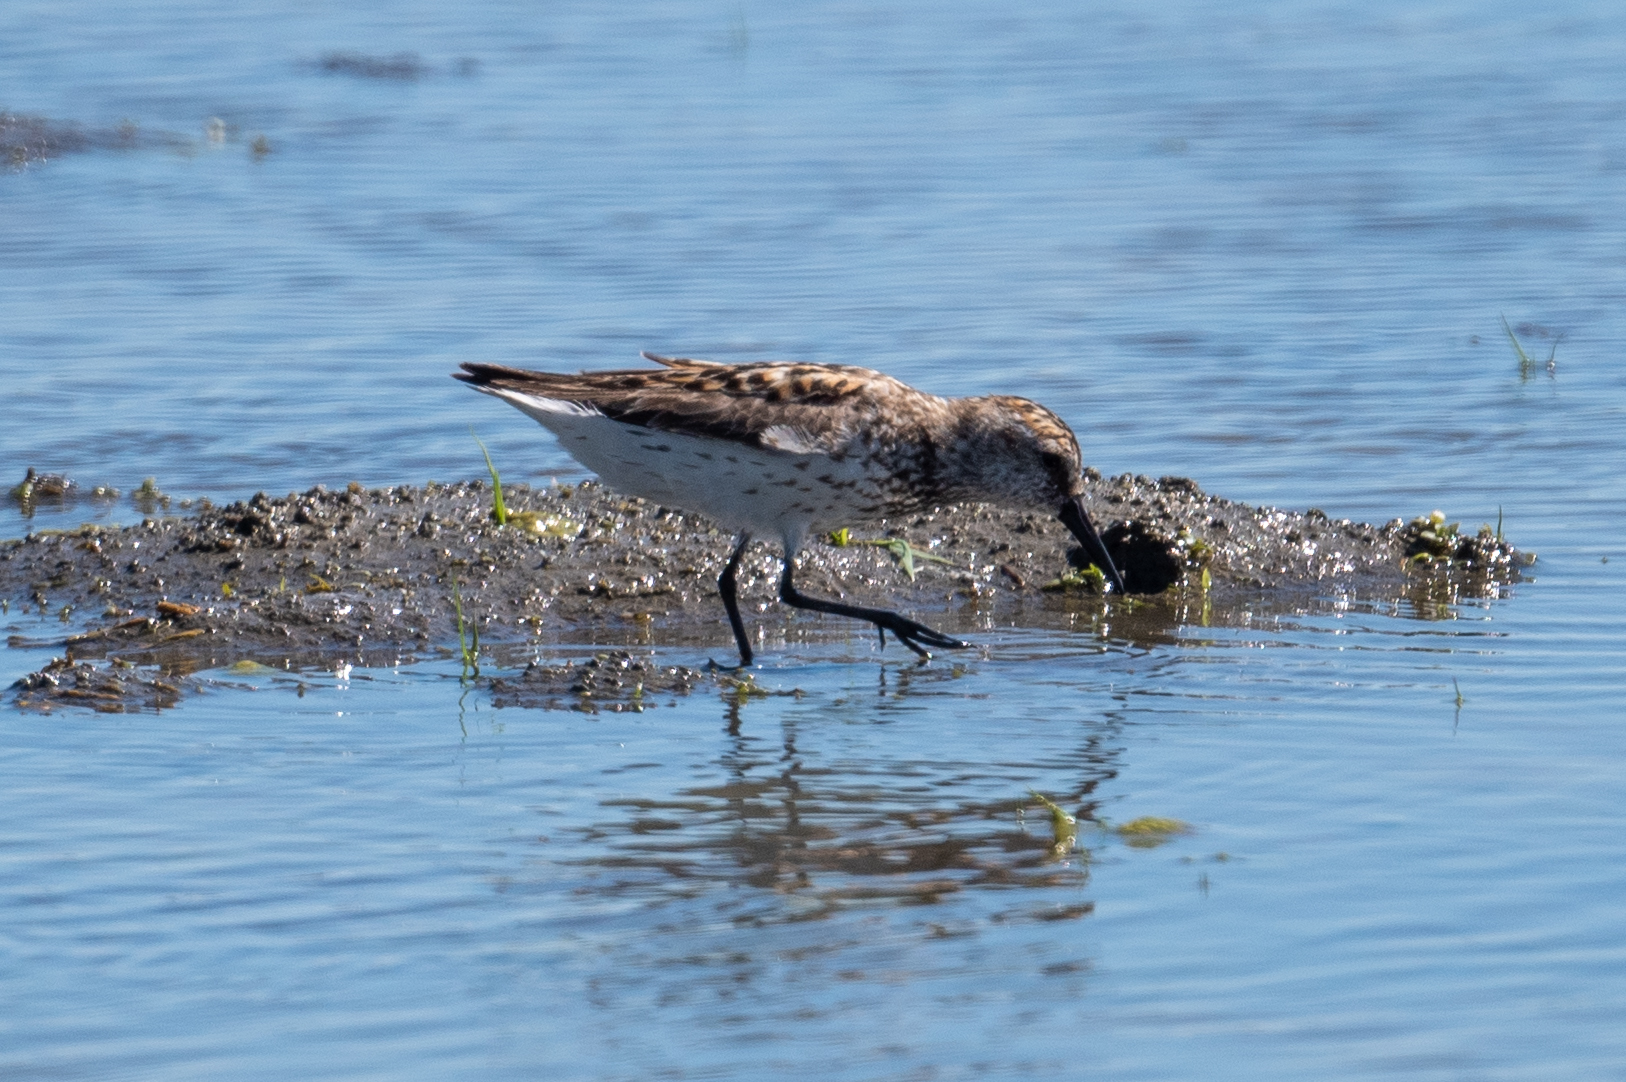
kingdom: Animalia
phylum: Chordata
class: Aves
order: Charadriiformes
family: Scolopacidae
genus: Calidris
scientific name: Calidris mauri
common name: Western sandpiper
